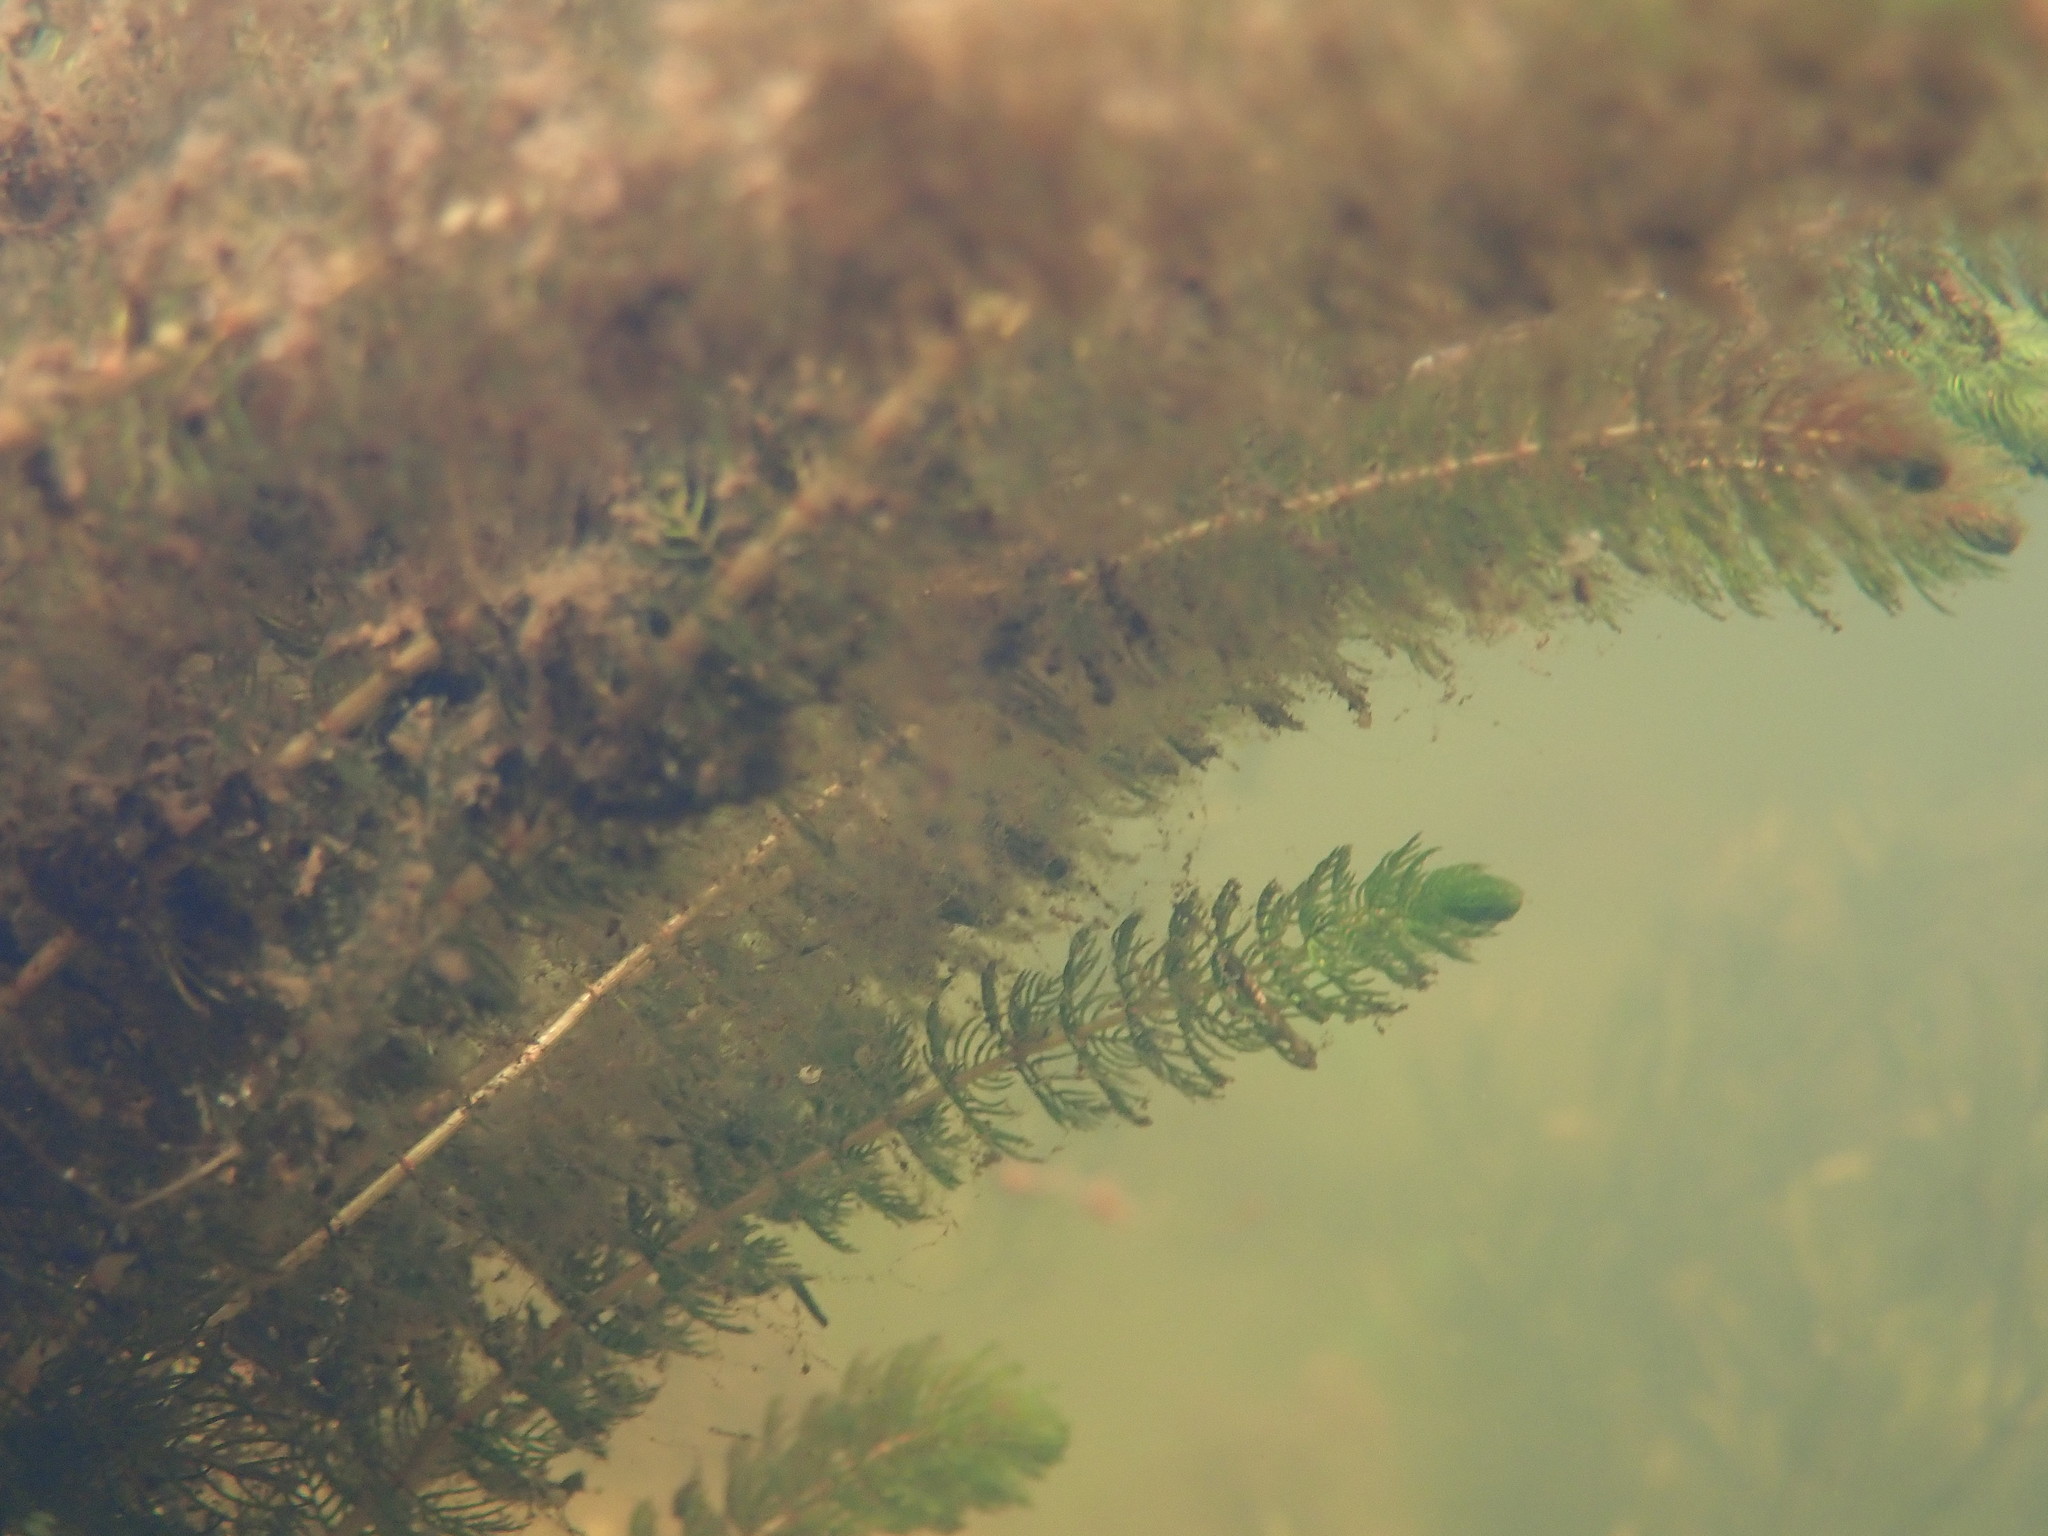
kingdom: Plantae
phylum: Tracheophyta
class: Magnoliopsida
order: Saxifragales
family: Haloragaceae
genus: Myriophyllum
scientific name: Myriophyllum alterniflorum
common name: Alternate water-milfoil
